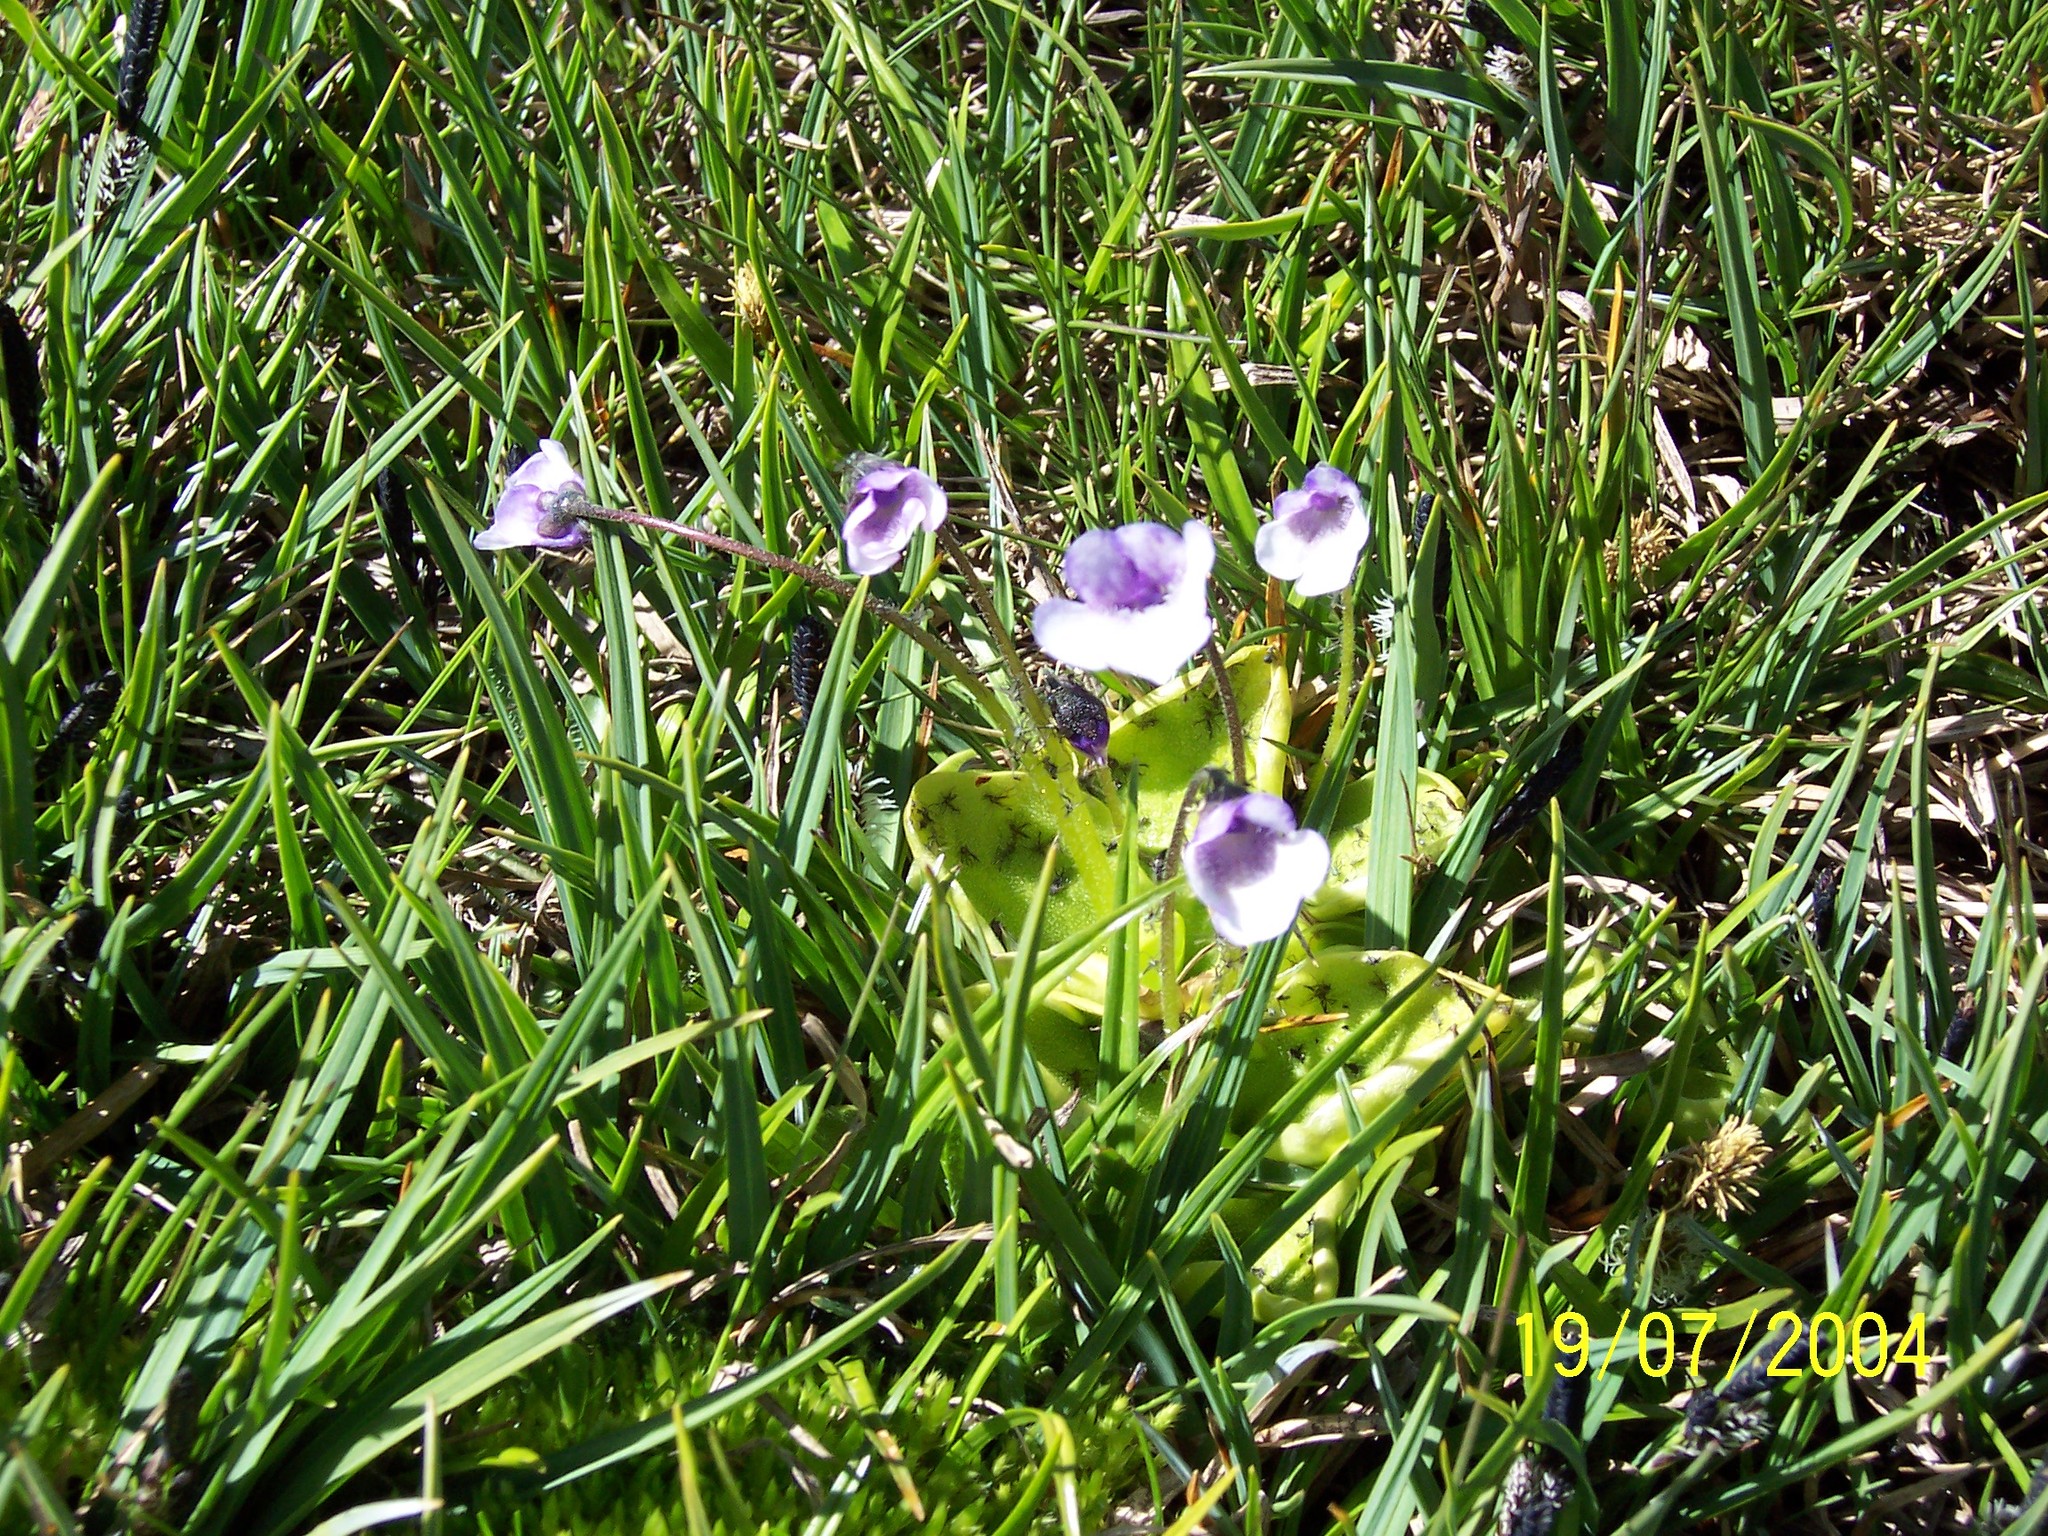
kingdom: Plantae
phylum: Tracheophyta
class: Magnoliopsida
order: Lamiales
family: Lentibulariaceae
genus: Pinguicula
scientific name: Pinguicula nevadensis
